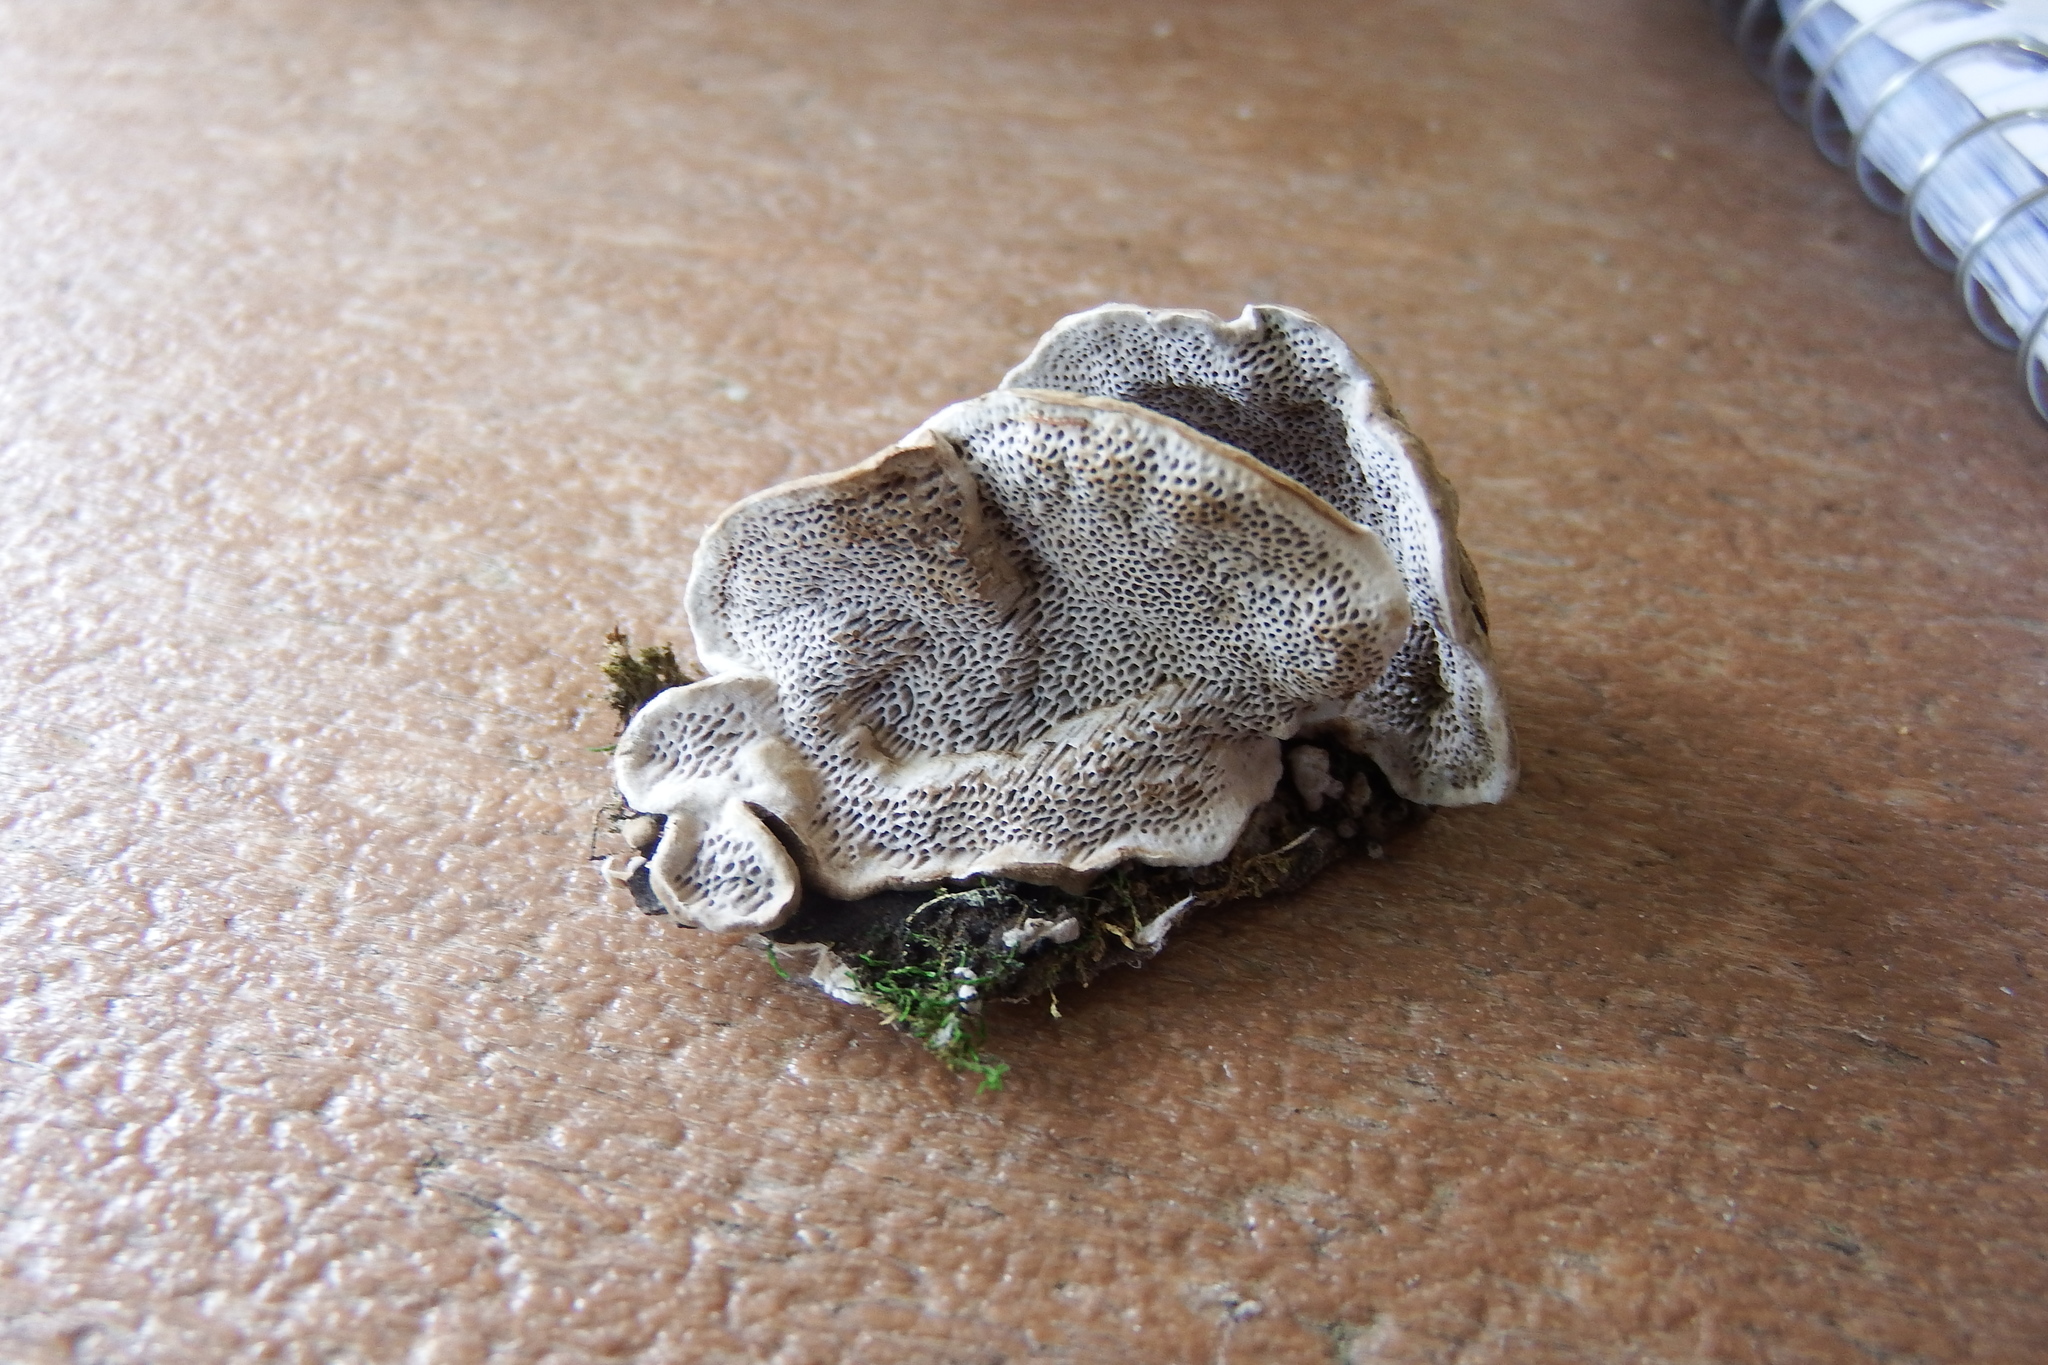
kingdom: Fungi
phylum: Basidiomycota
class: Agaricomycetes
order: Polyporales
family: Polyporaceae
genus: Podofomes
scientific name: Podofomes mollis
